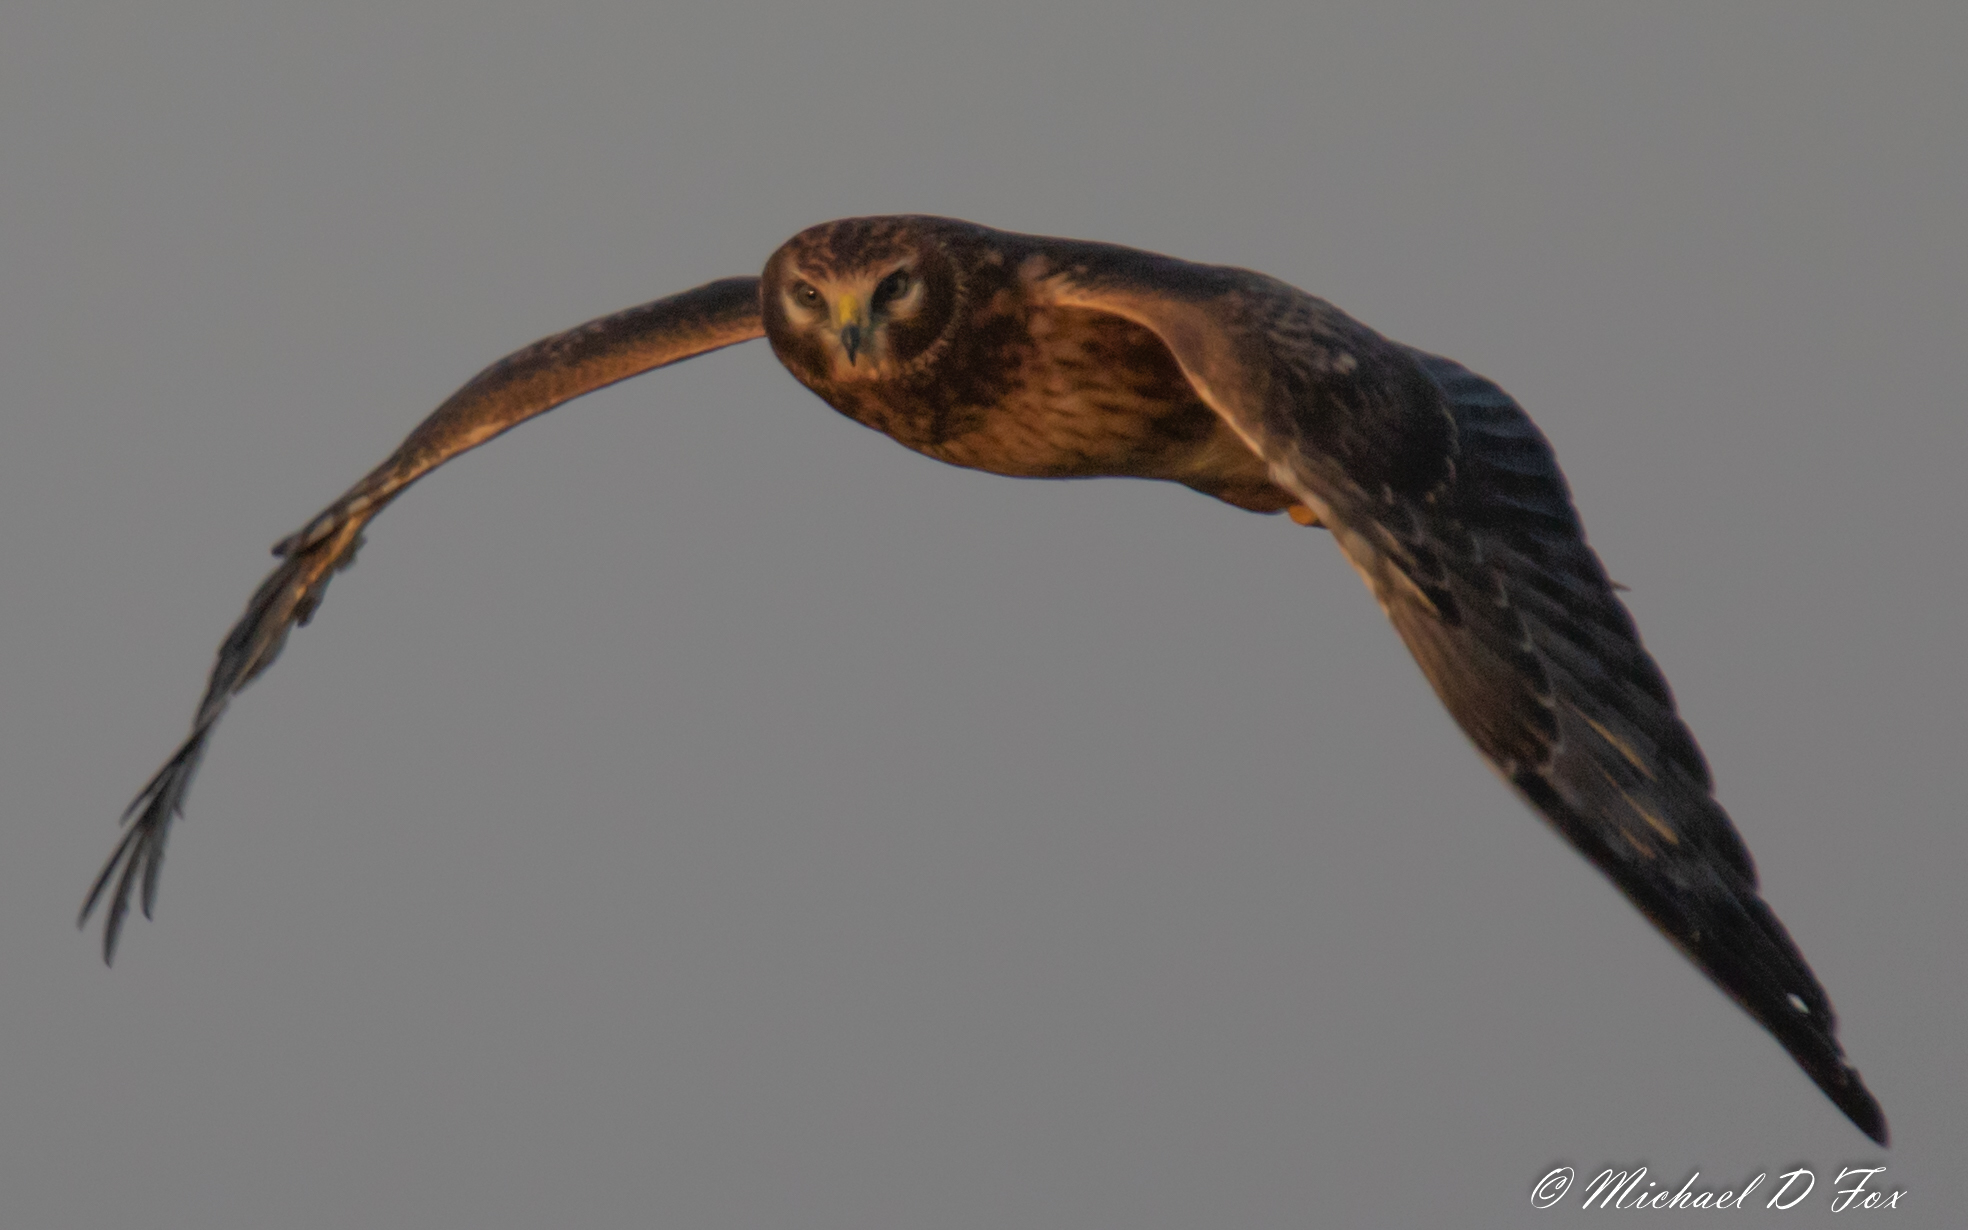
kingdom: Animalia
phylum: Chordata
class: Aves
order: Accipitriformes
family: Accipitridae
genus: Circus
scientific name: Circus cyaneus
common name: Hen harrier
